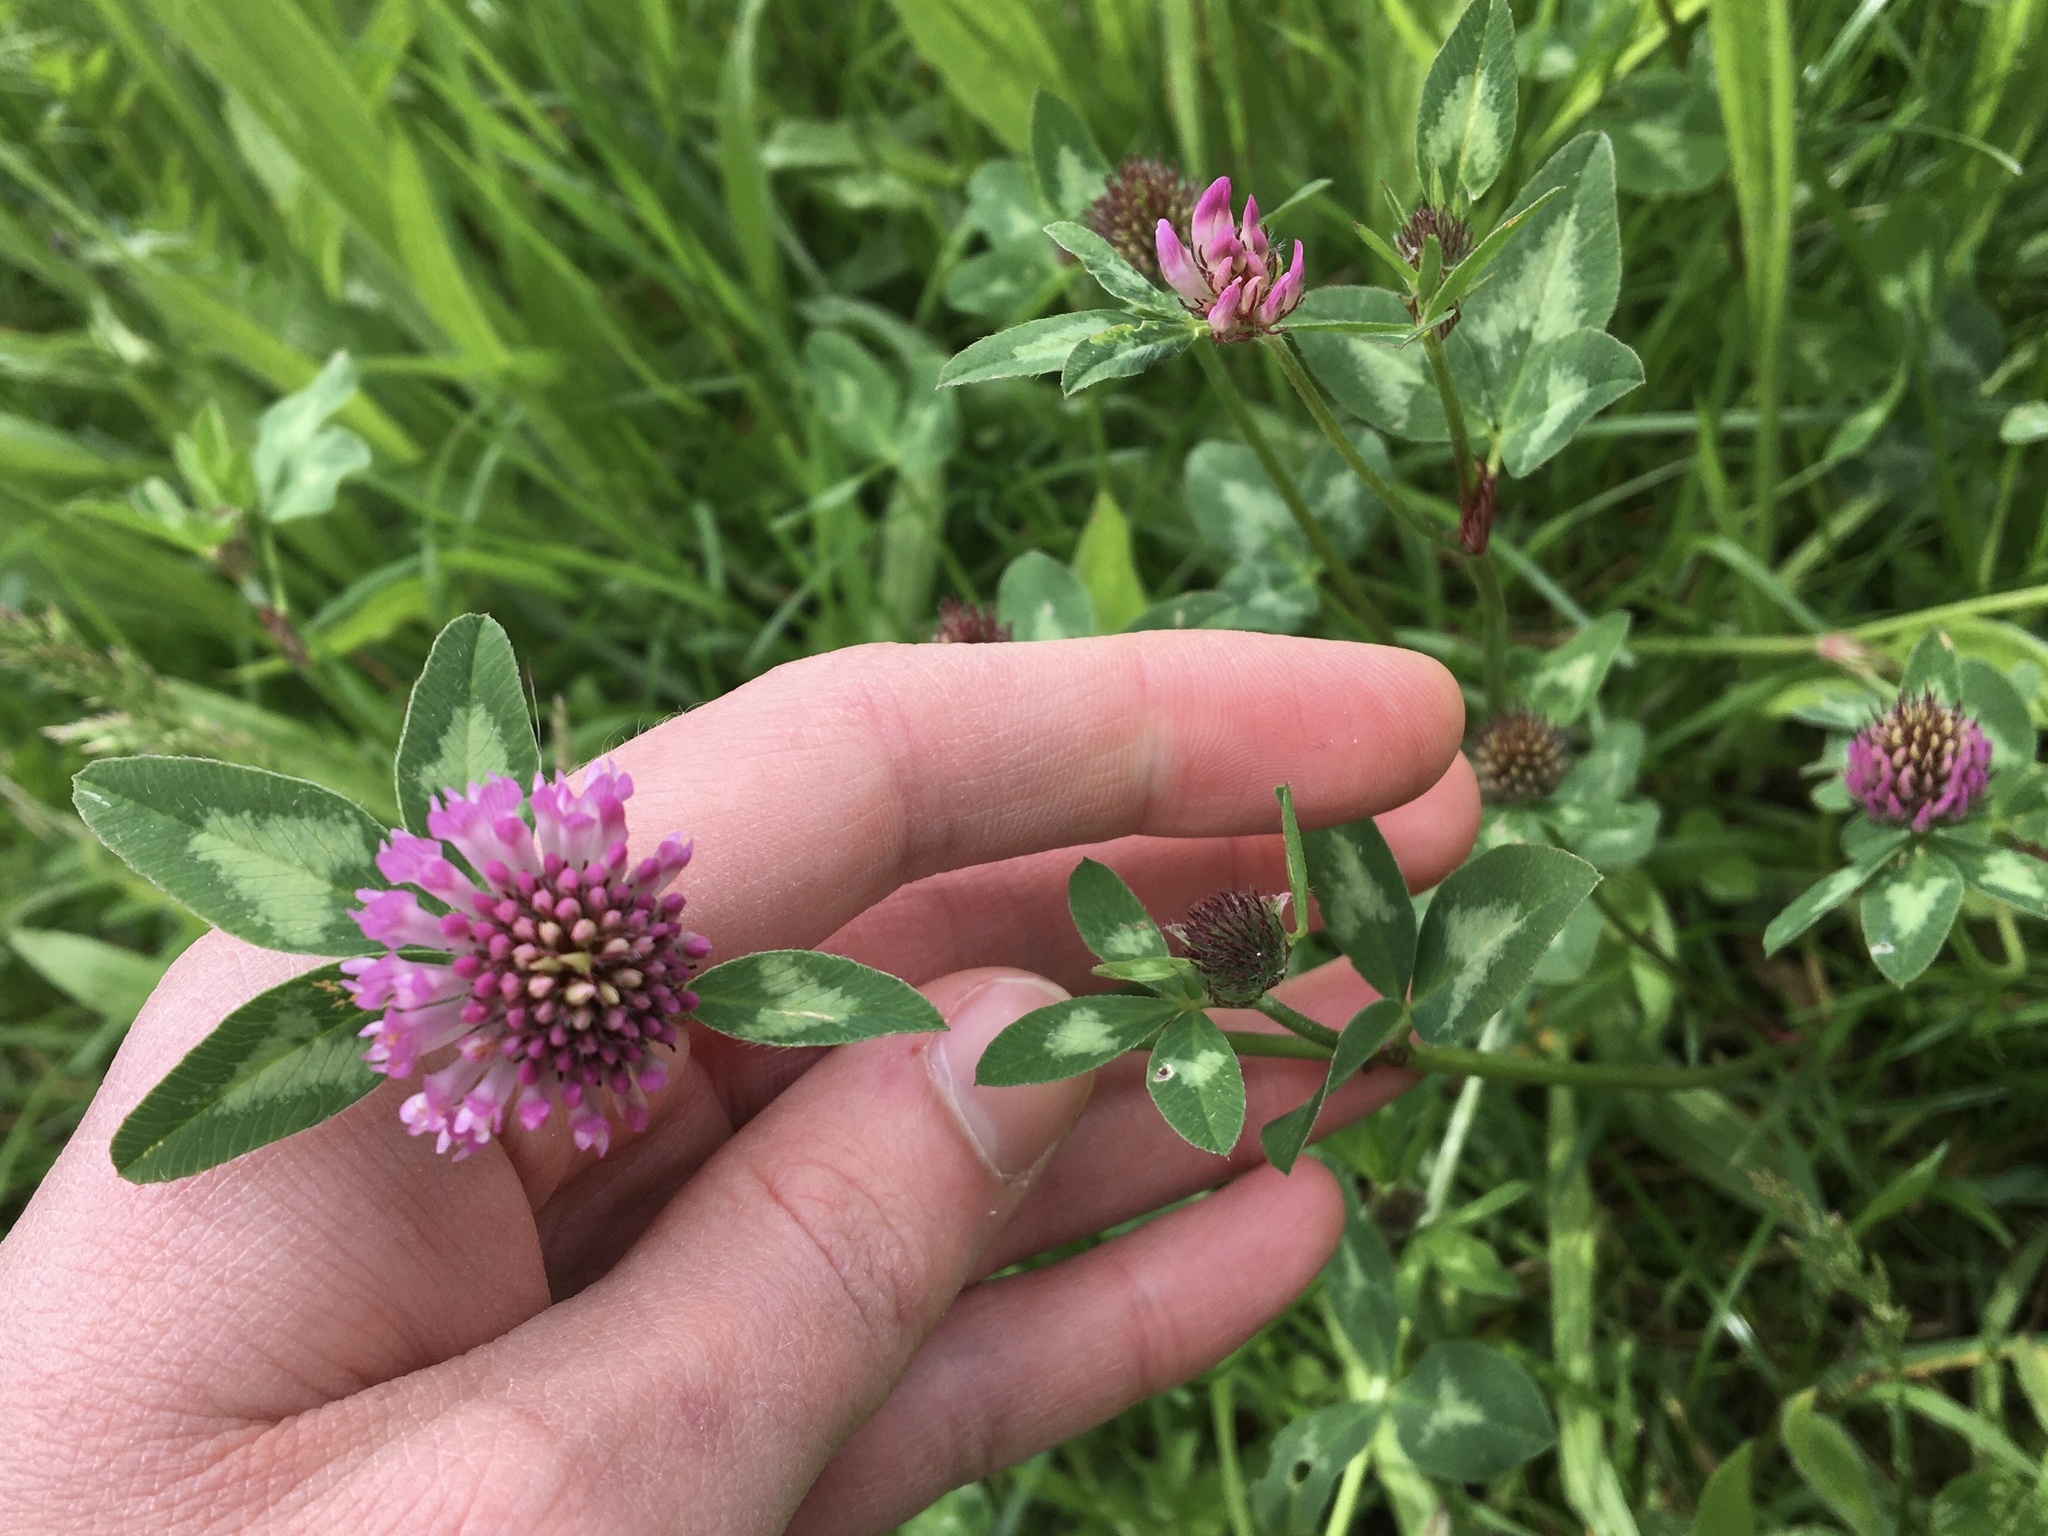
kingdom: Plantae
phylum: Tracheophyta
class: Magnoliopsida
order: Fabales
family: Fabaceae
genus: Trifolium
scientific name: Trifolium pratense
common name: Red clover
